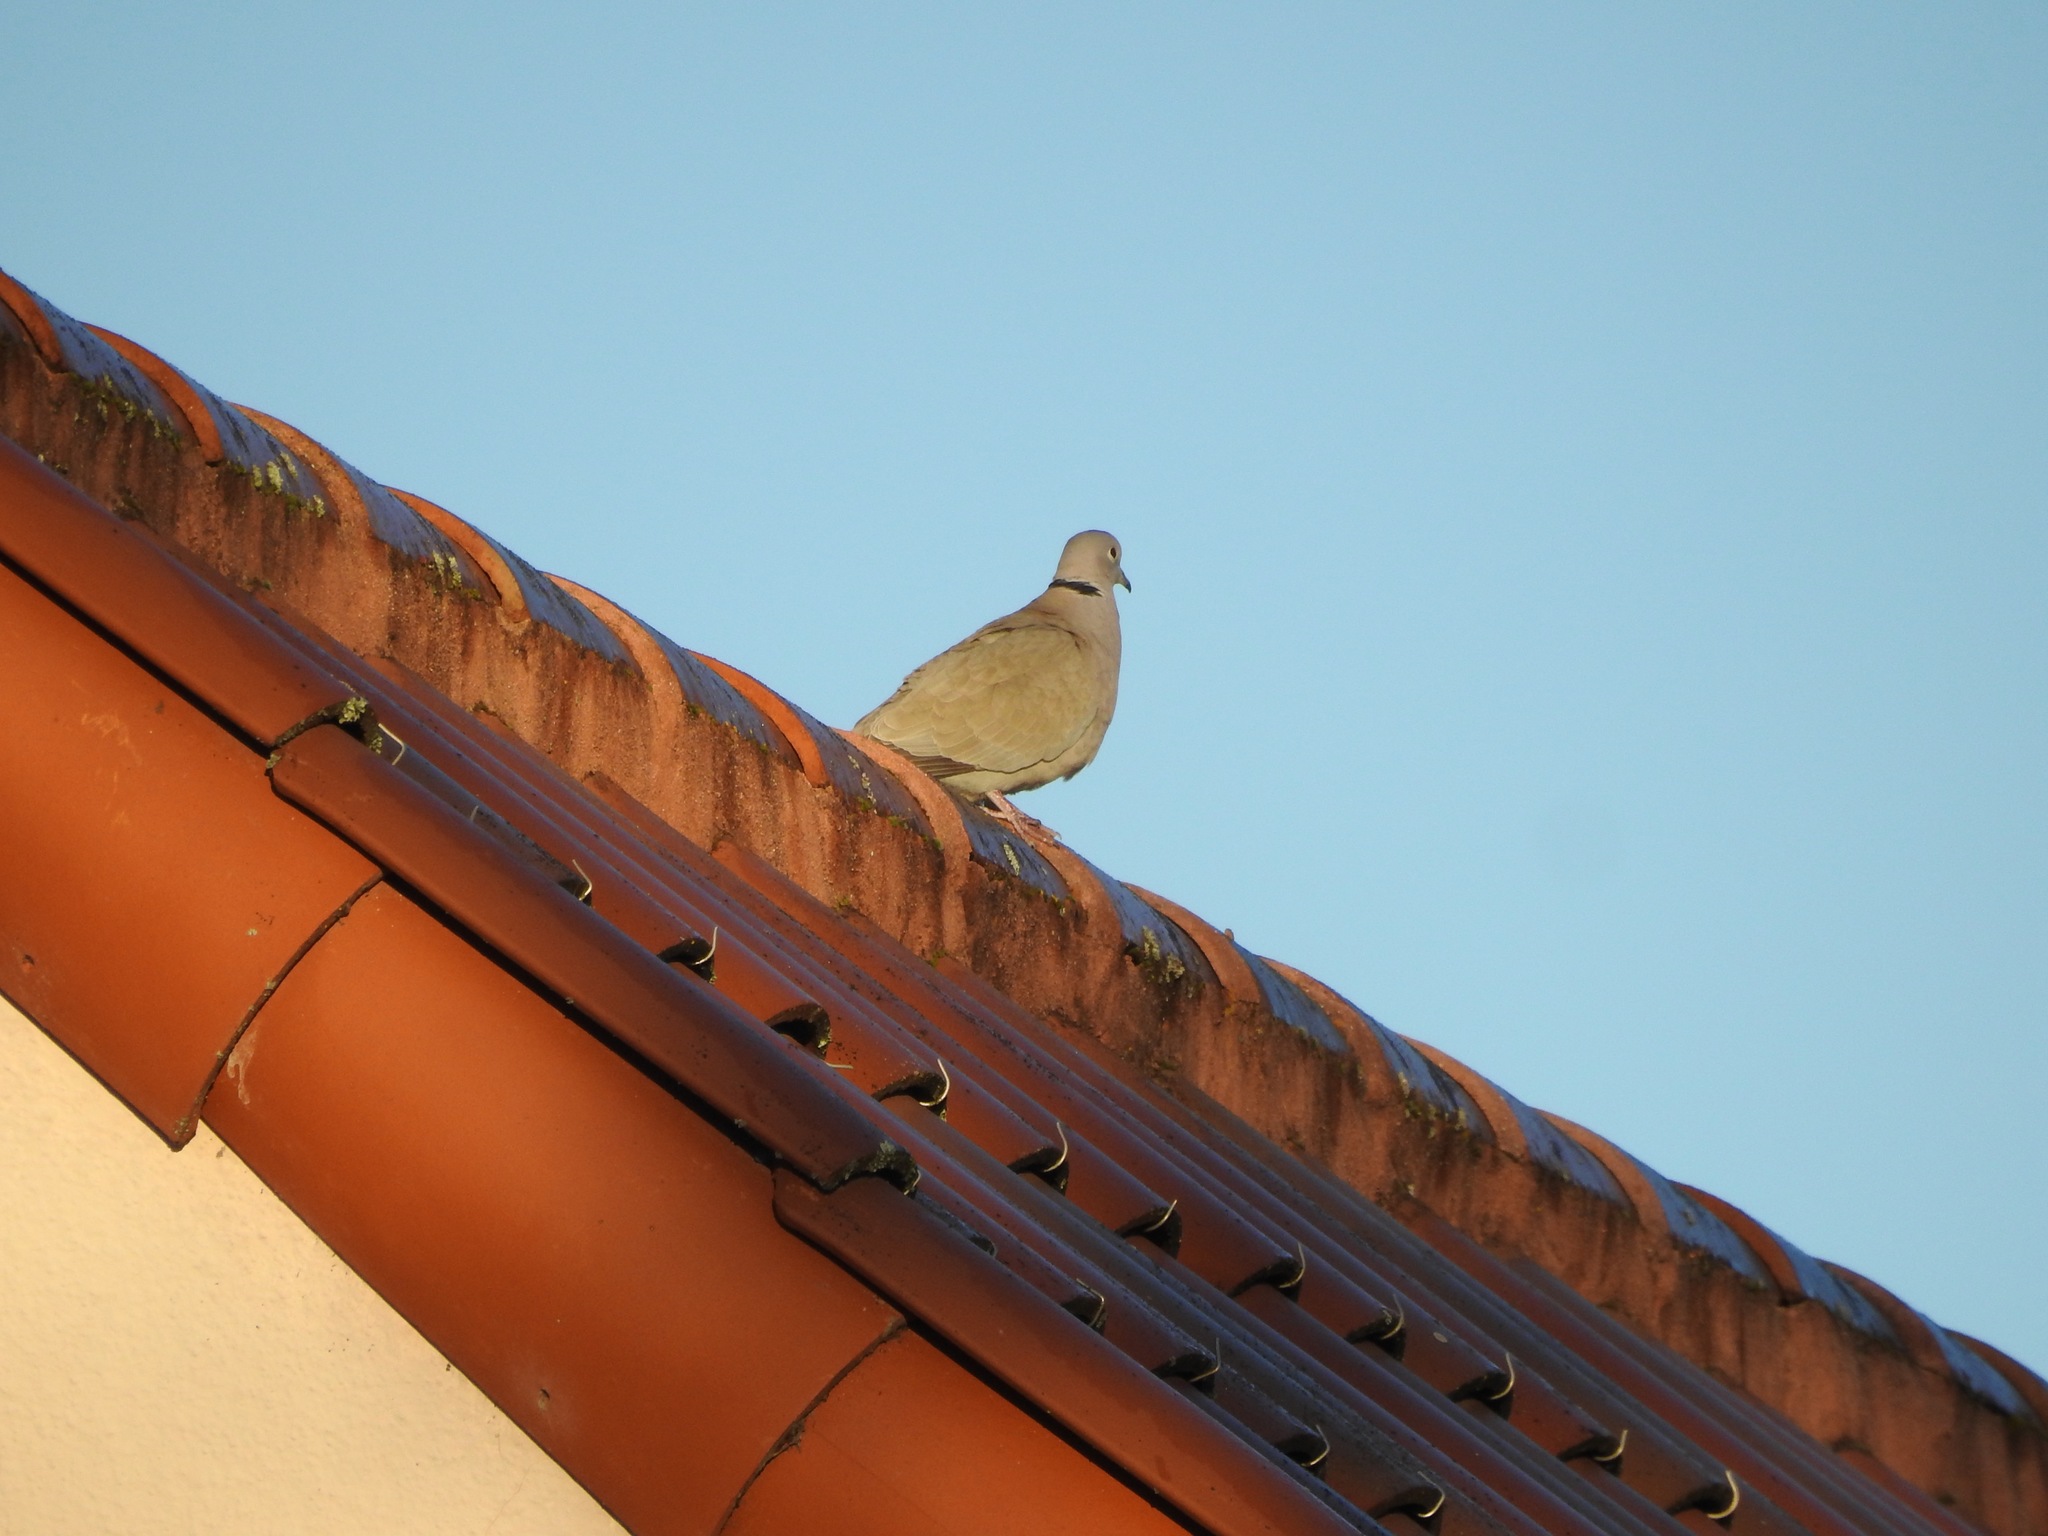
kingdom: Animalia
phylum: Chordata
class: Aves
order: Columbiformes
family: Columbidae
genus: Streptopelia
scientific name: Streptopelia decaocto
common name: Eurasian collared dove
